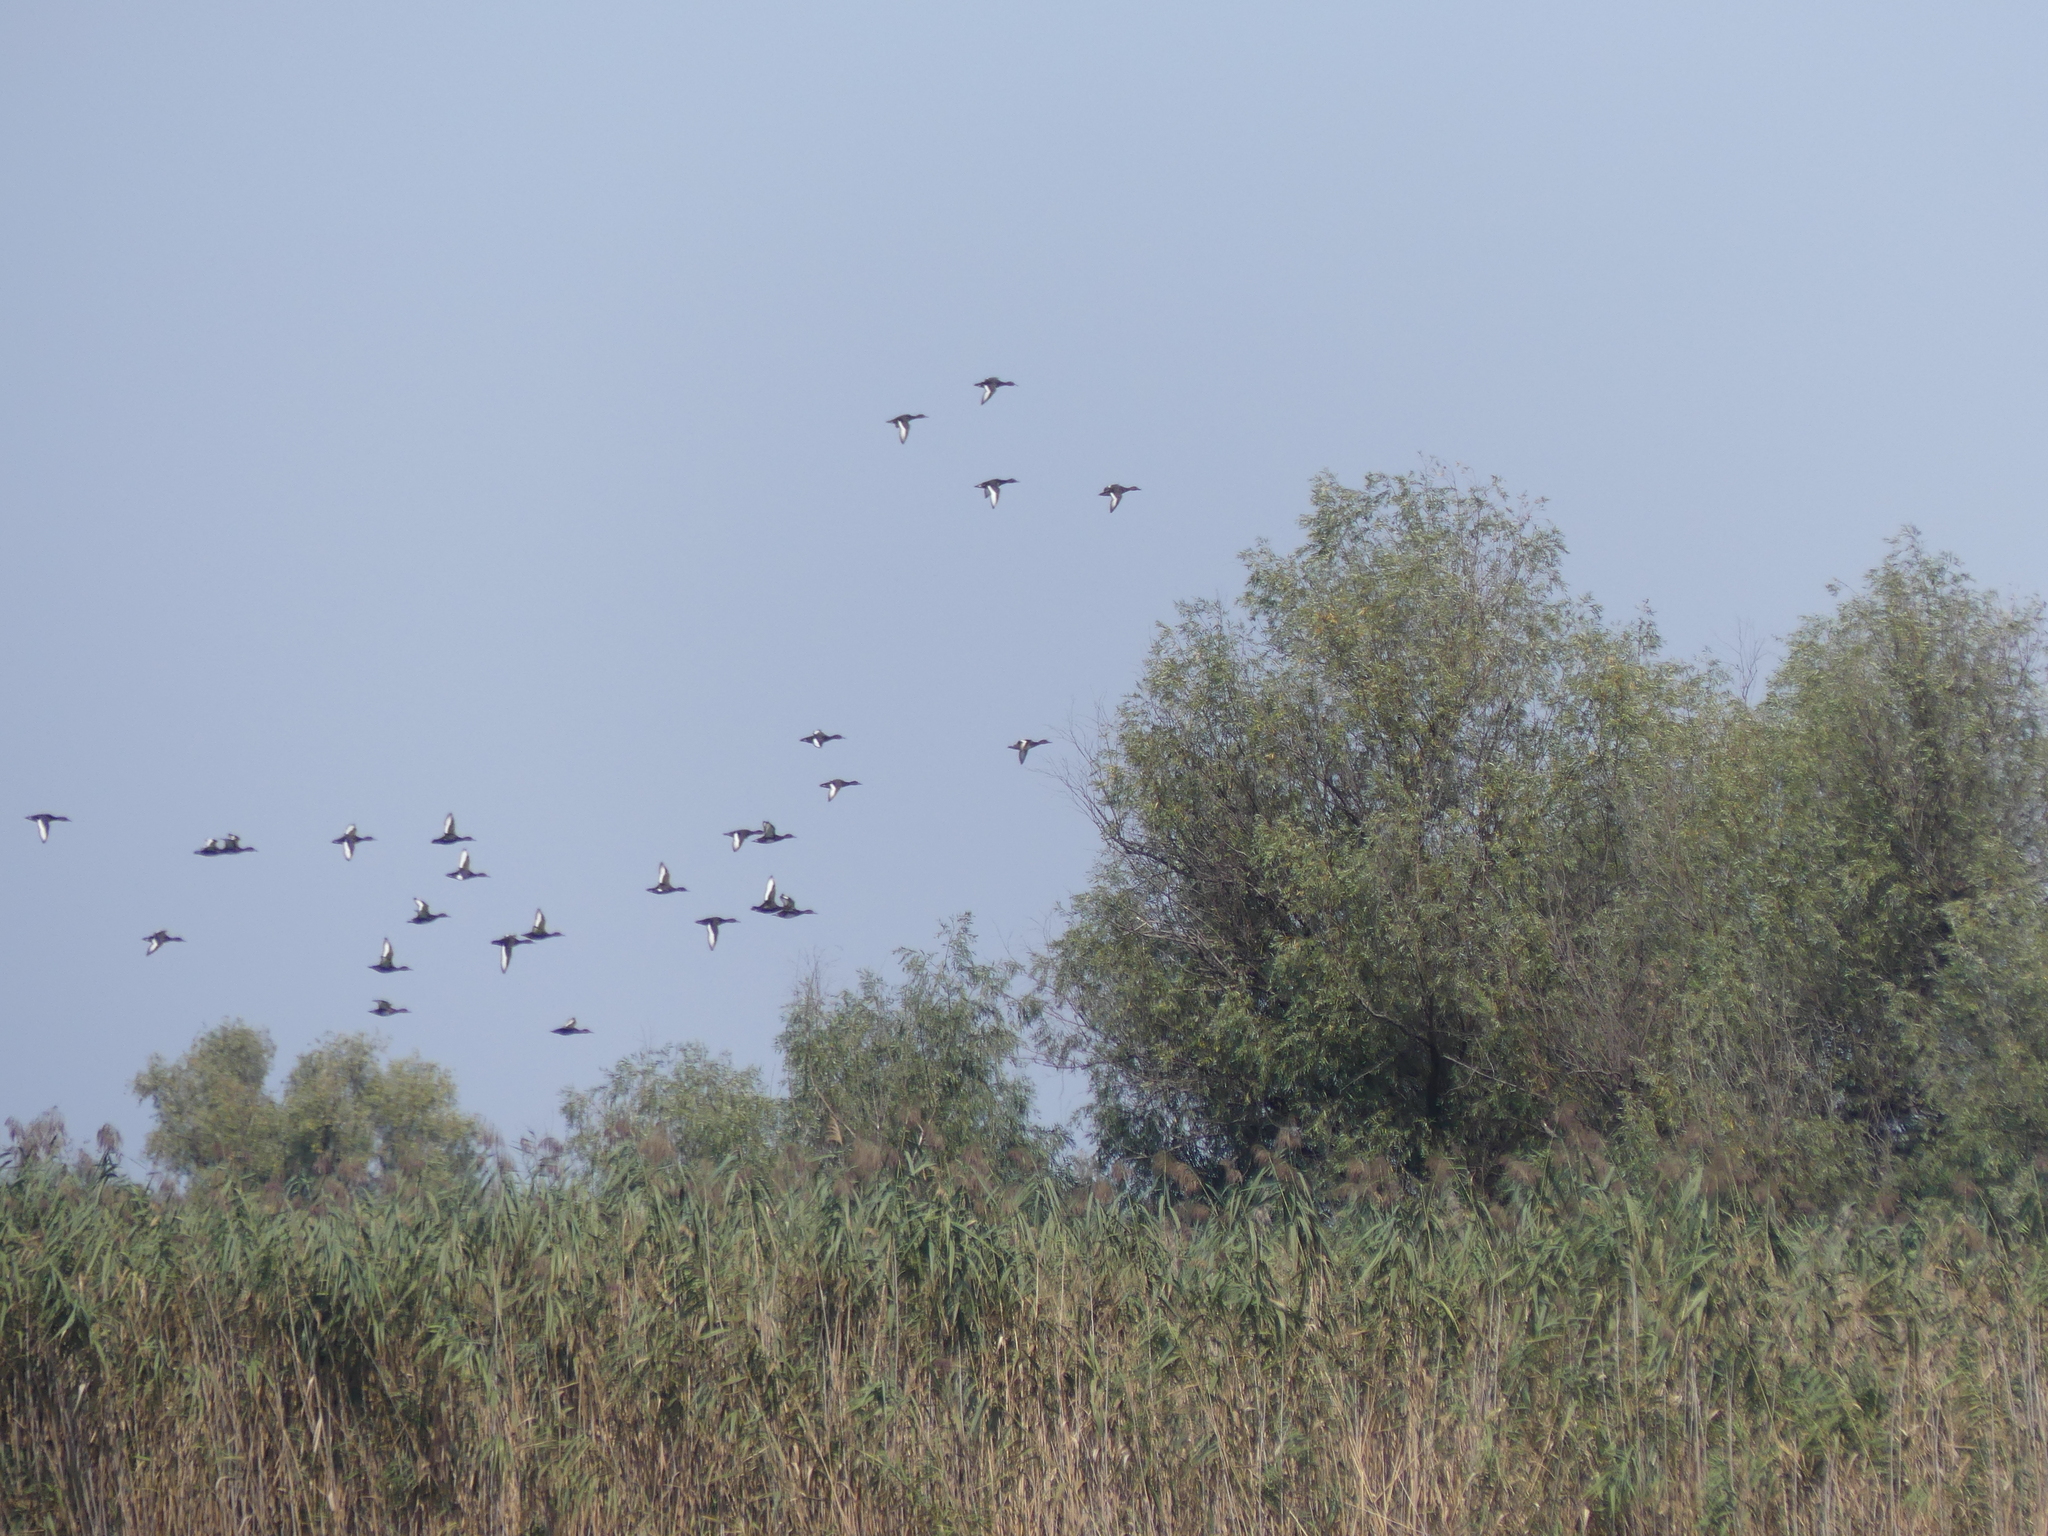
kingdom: Animalia
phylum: Chordata
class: Aves
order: Anseriformes
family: Anatidae
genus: Aythya
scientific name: Aythya nyroca
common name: Ferruginous duck
